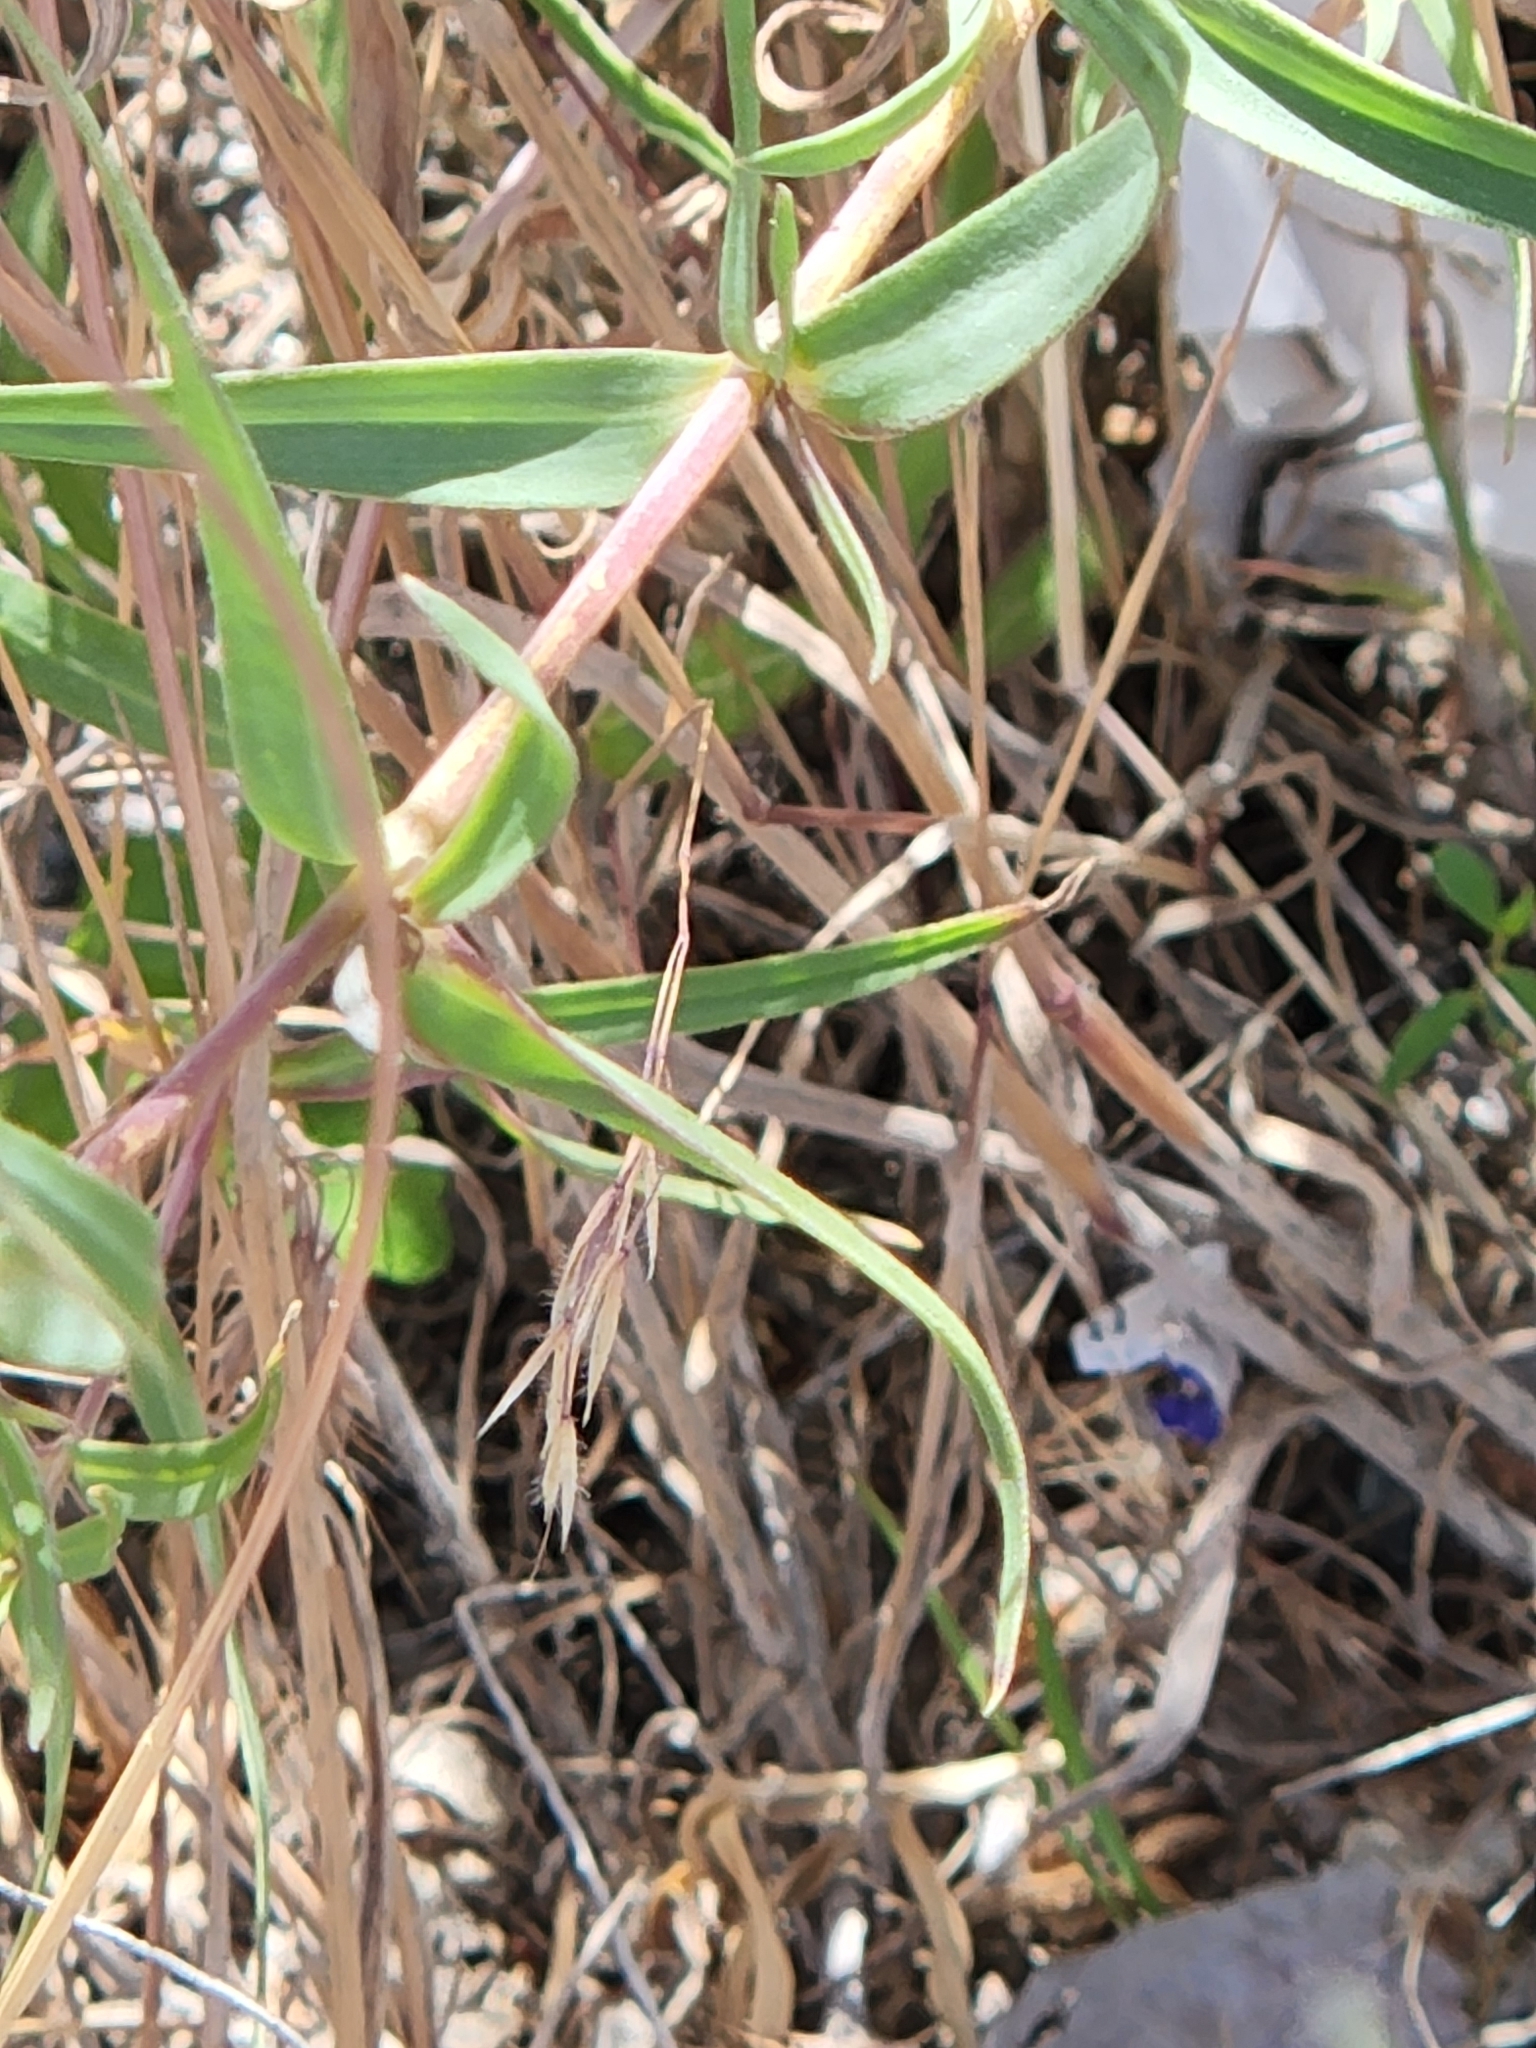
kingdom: Plantae
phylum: Tracheophyta
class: Magnoliopsida
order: Caryophyllales
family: Caryophyllaceae
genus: Gypsophila
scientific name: Gypsophila paniculata
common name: Baby's-breath
